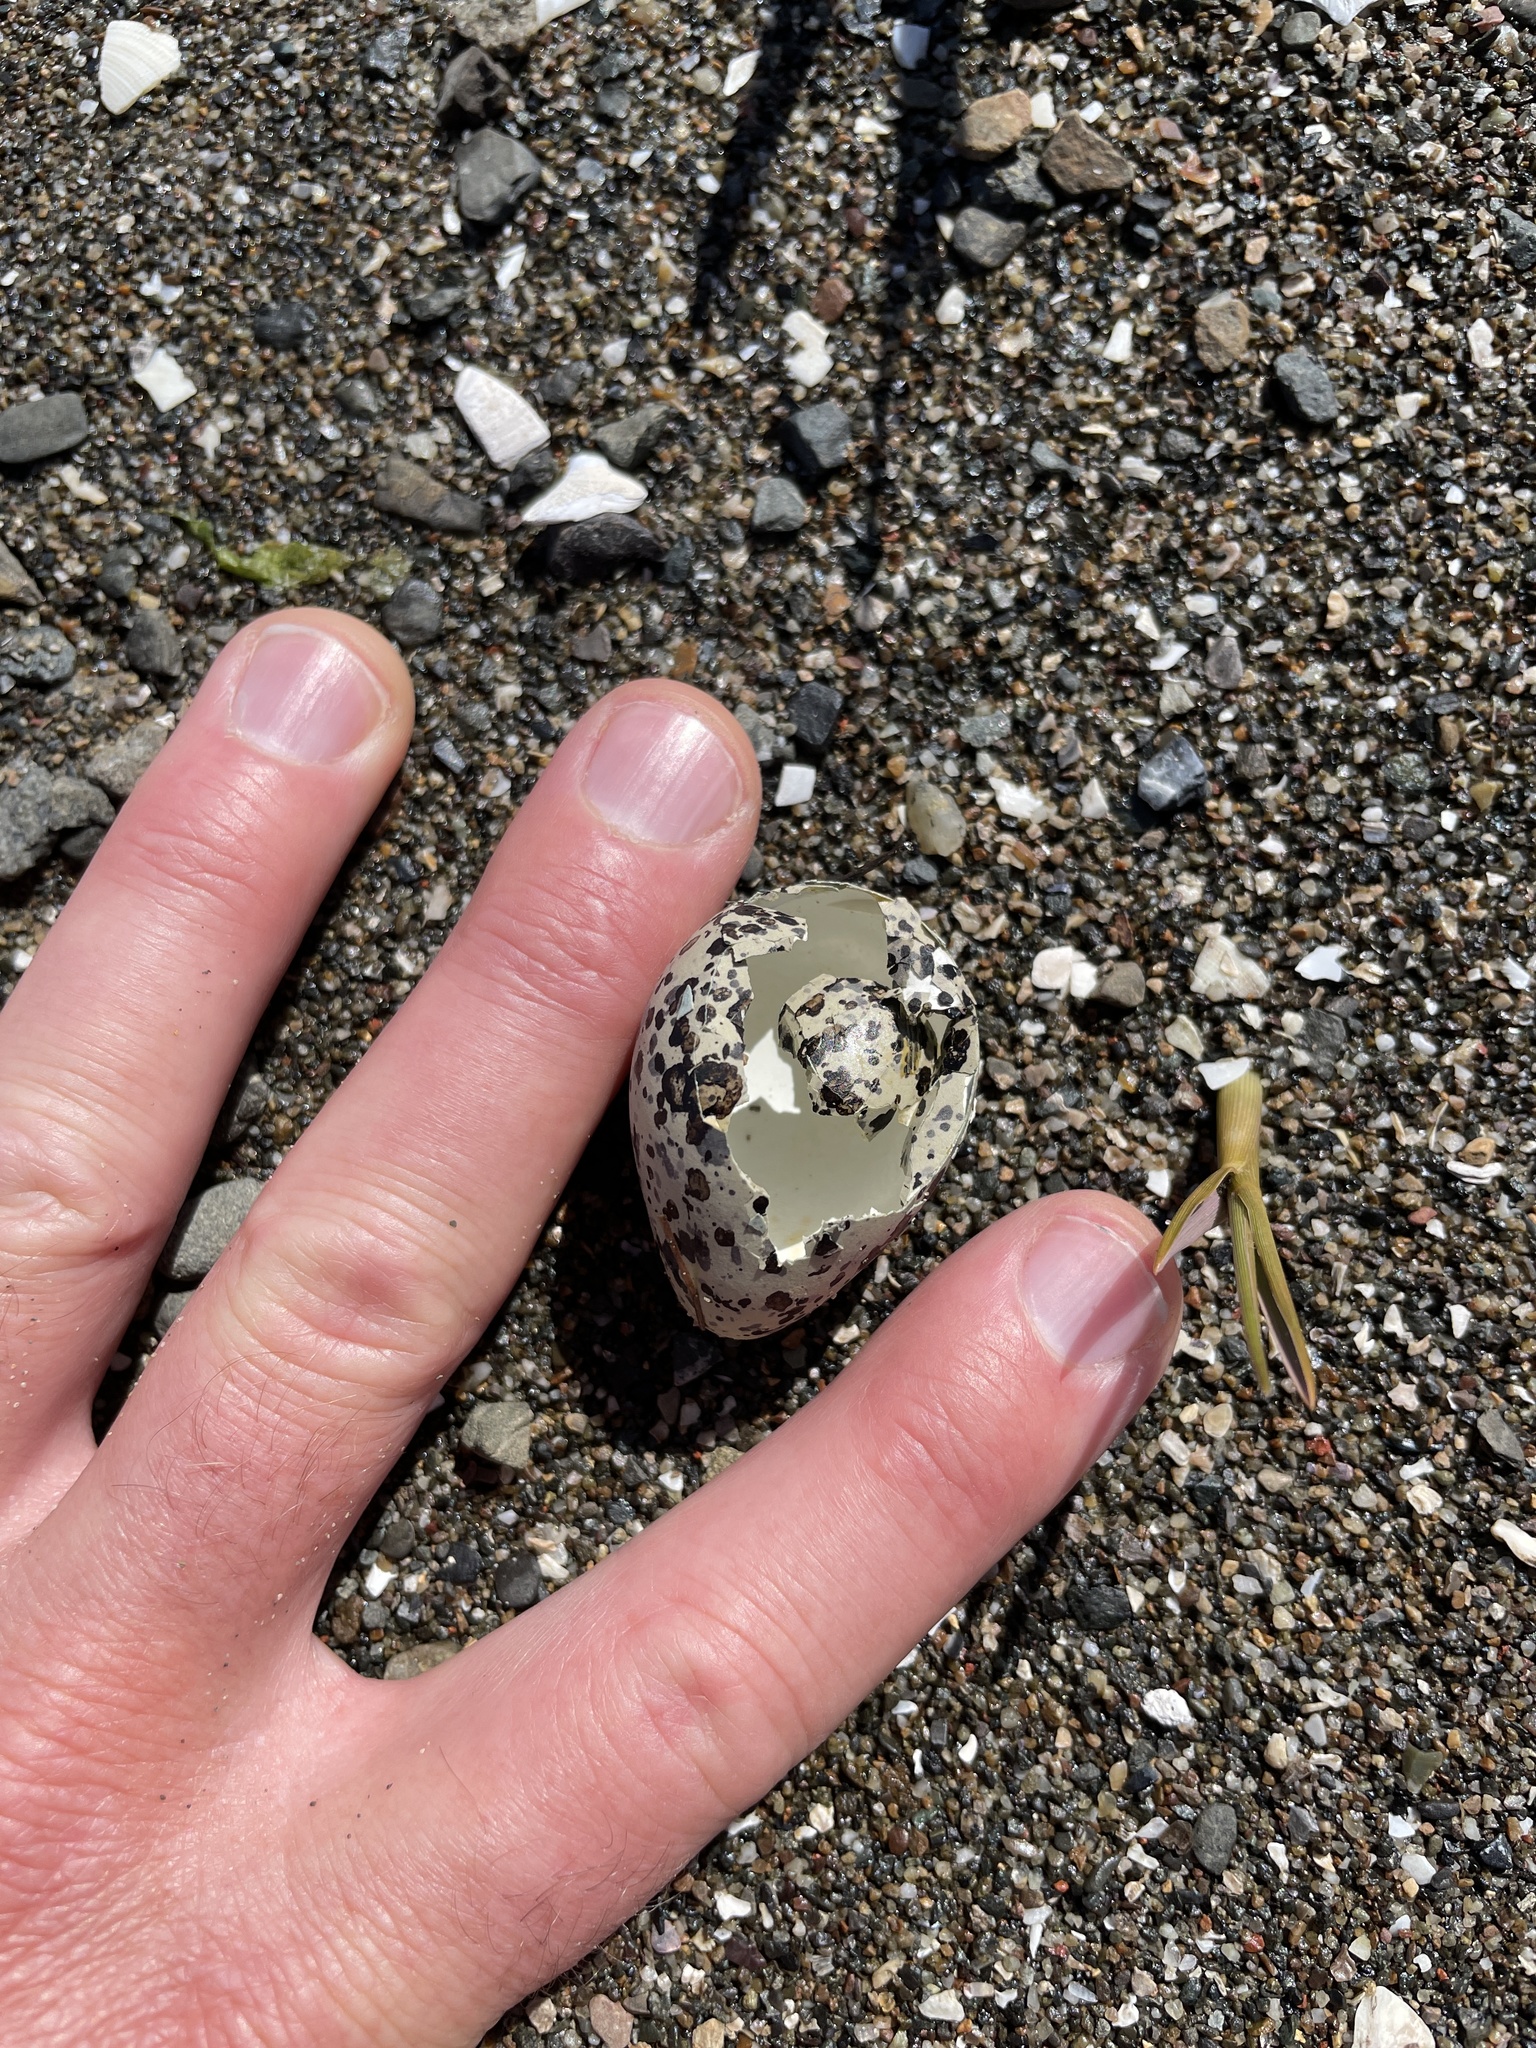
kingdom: Animalia
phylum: Chordata
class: Aves
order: Charadriiformes
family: Charadriidae
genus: Charadrius
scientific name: Charadrius vociferus
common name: Killdeer
